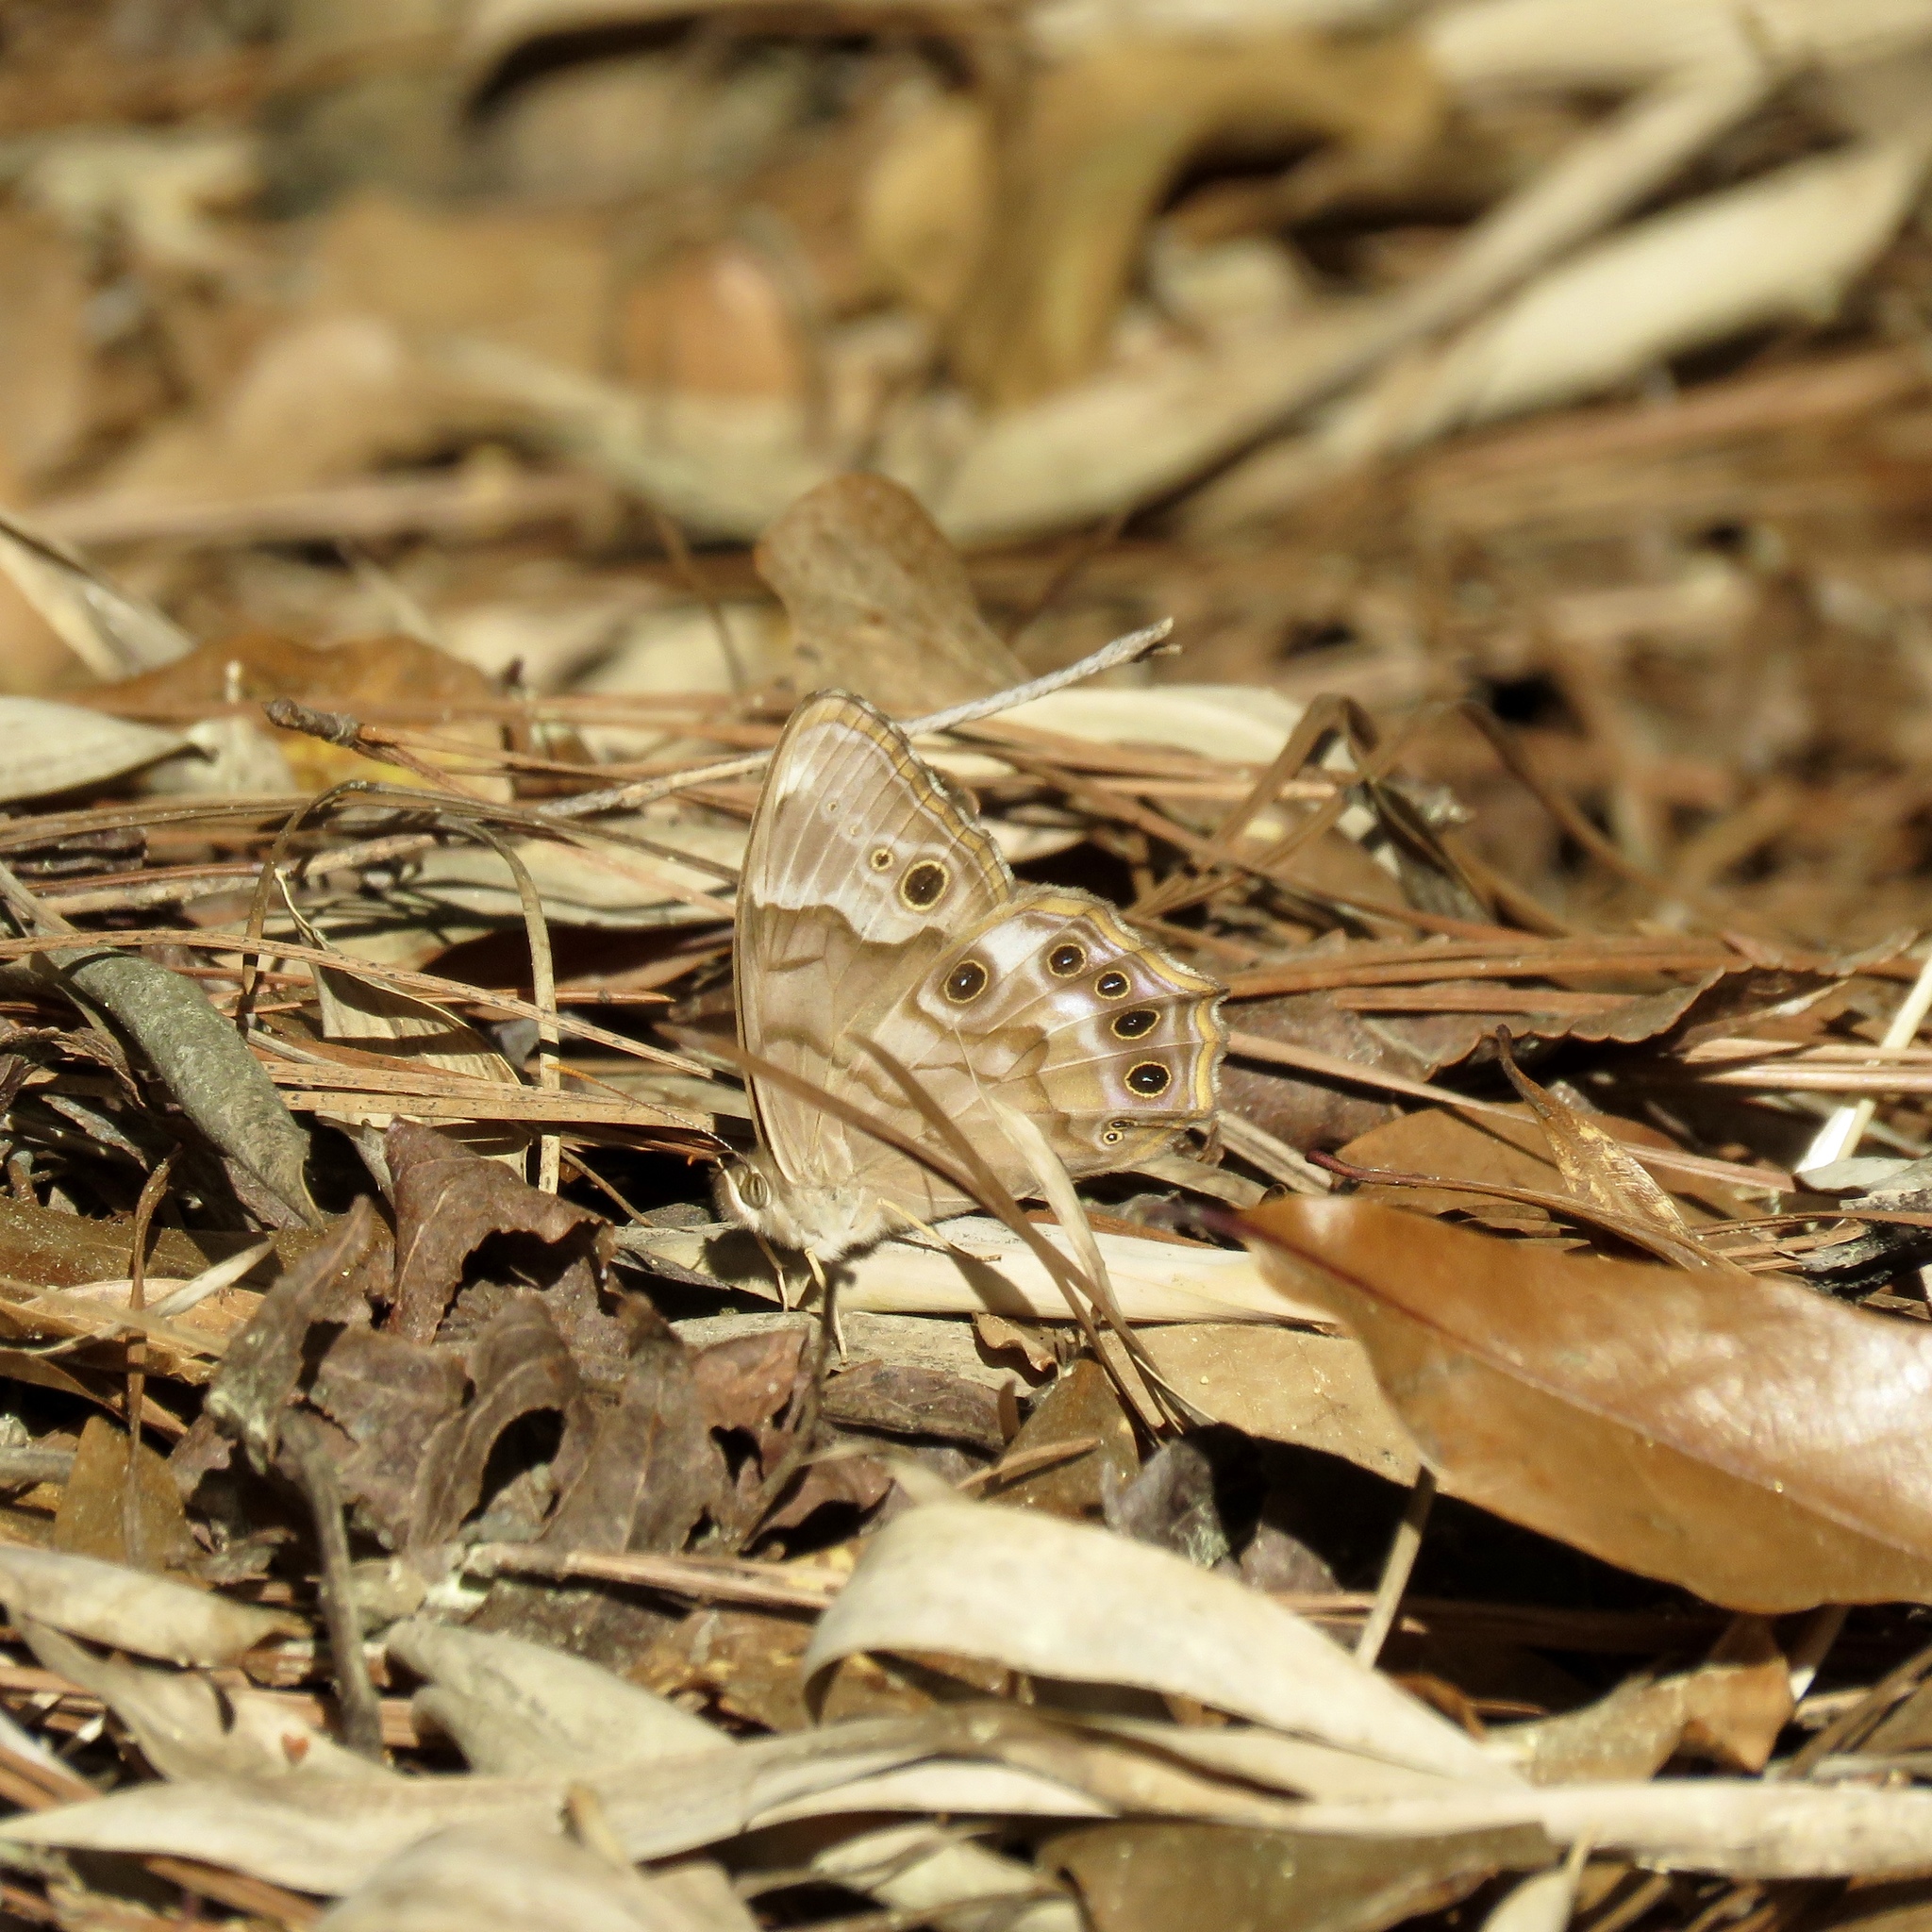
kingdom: Animalia
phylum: Arthropoda
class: Insecta
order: Lepidoptera
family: Nymphalidae
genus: Enodia
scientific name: Enodia portlandia
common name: Southern pearly-eye
